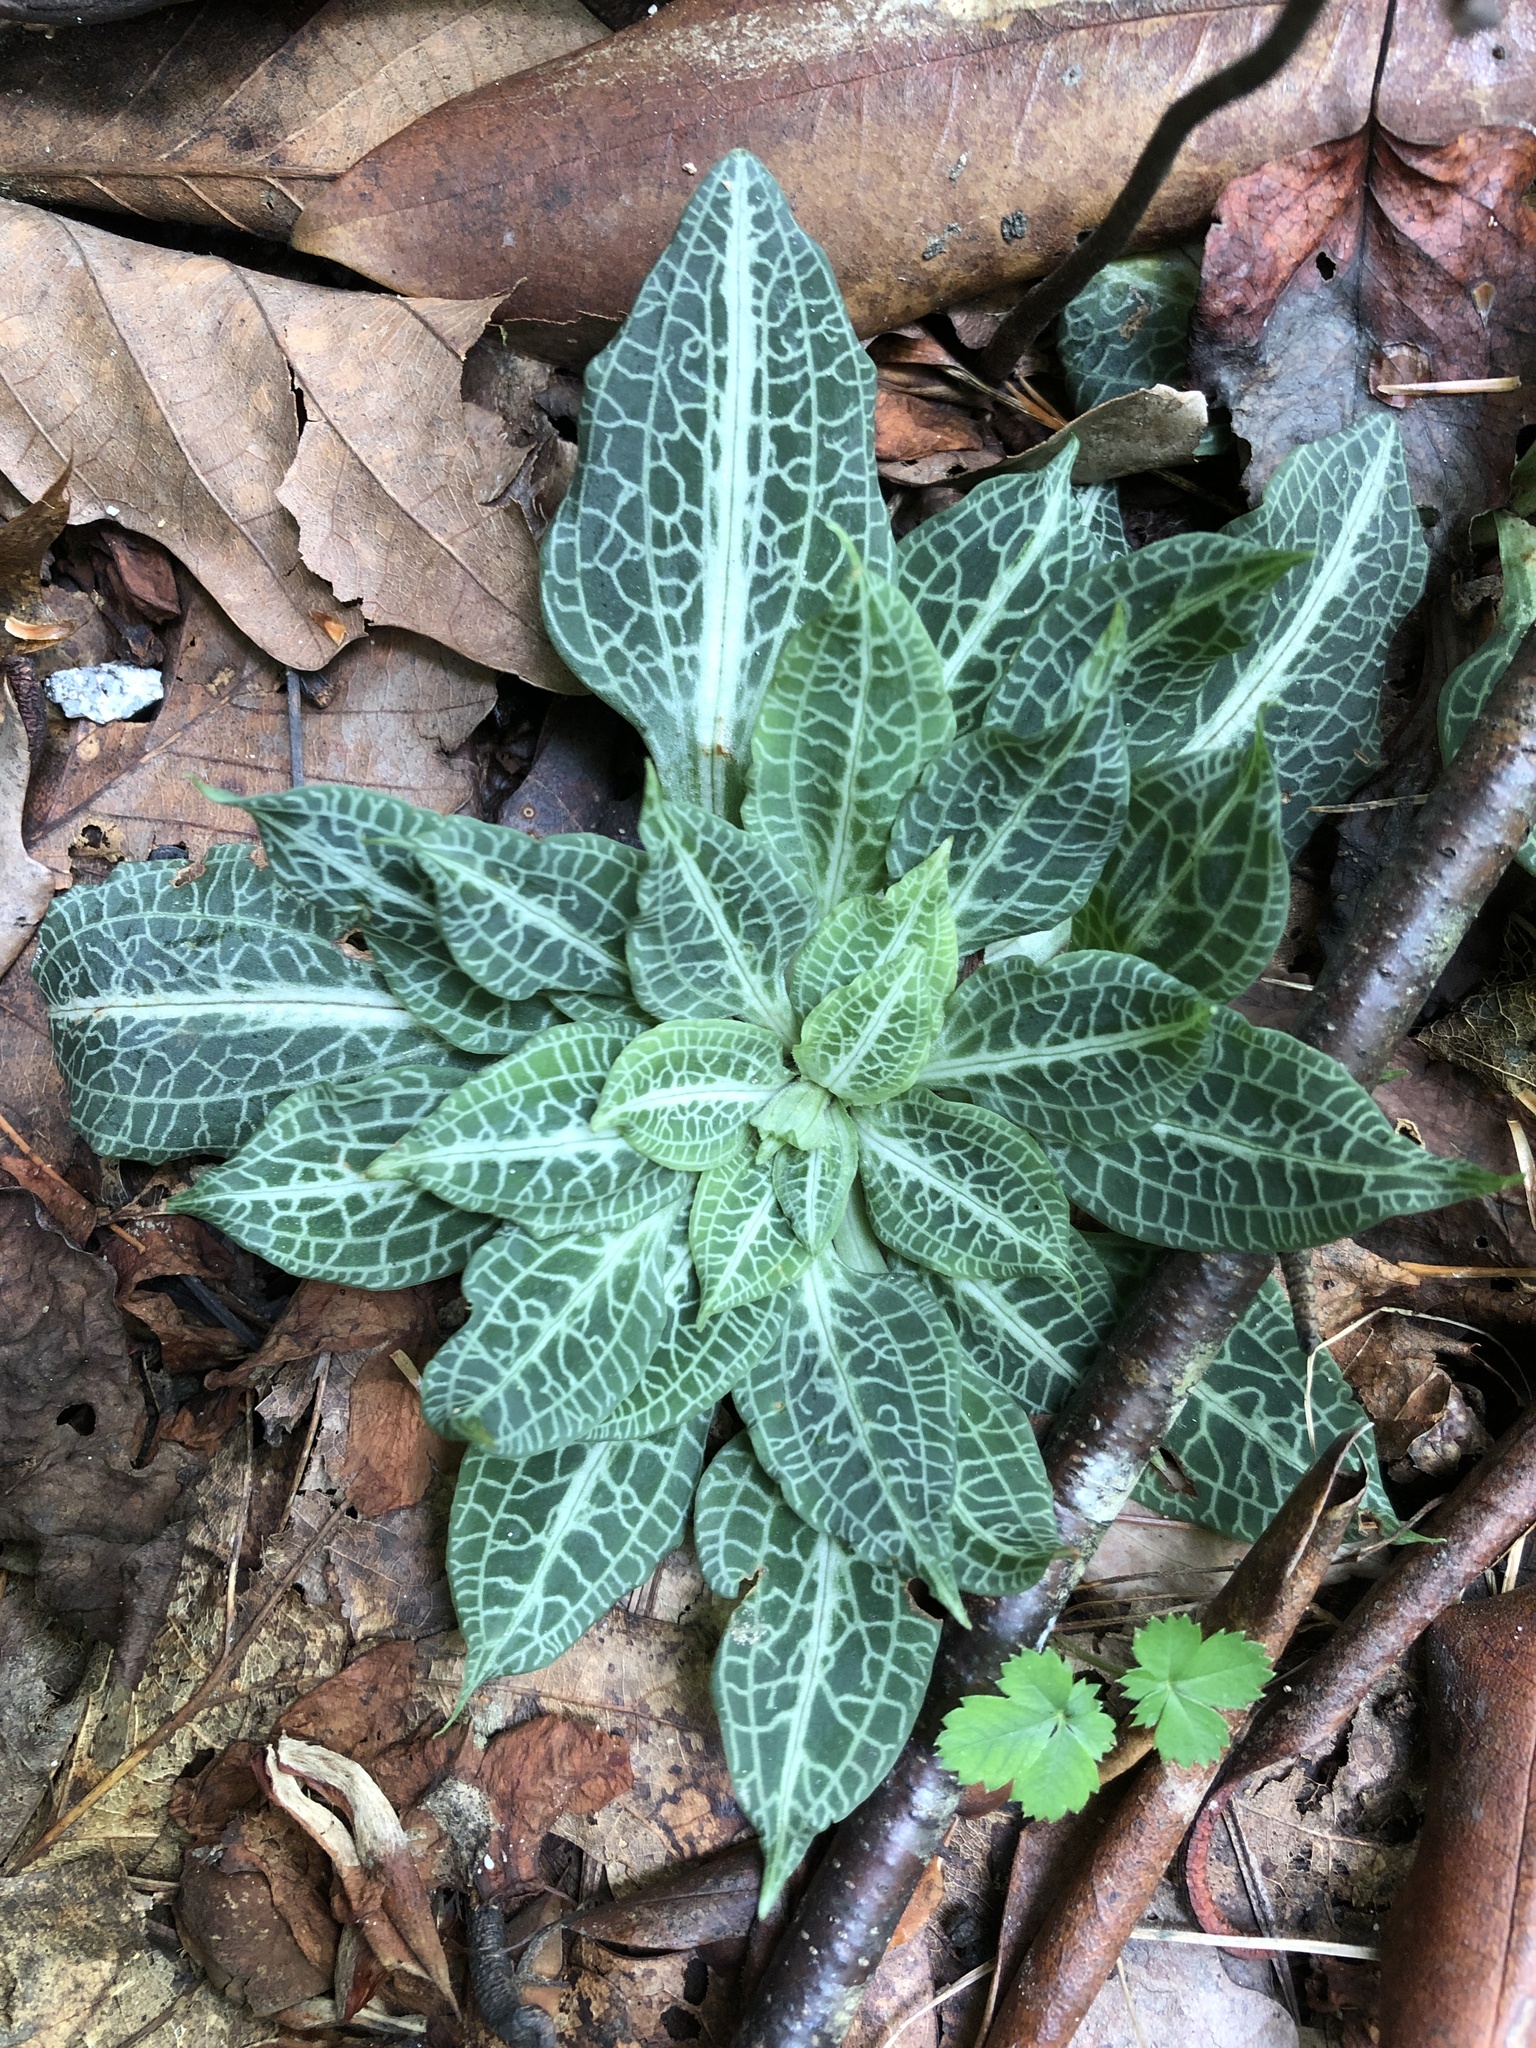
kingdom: Plantae
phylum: Tracheophyta
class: Liliopsida
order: Asparagales
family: Orchidaceae
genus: Goodyera
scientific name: Goodyera pubescens
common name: Downy rattlesnake-plantain
